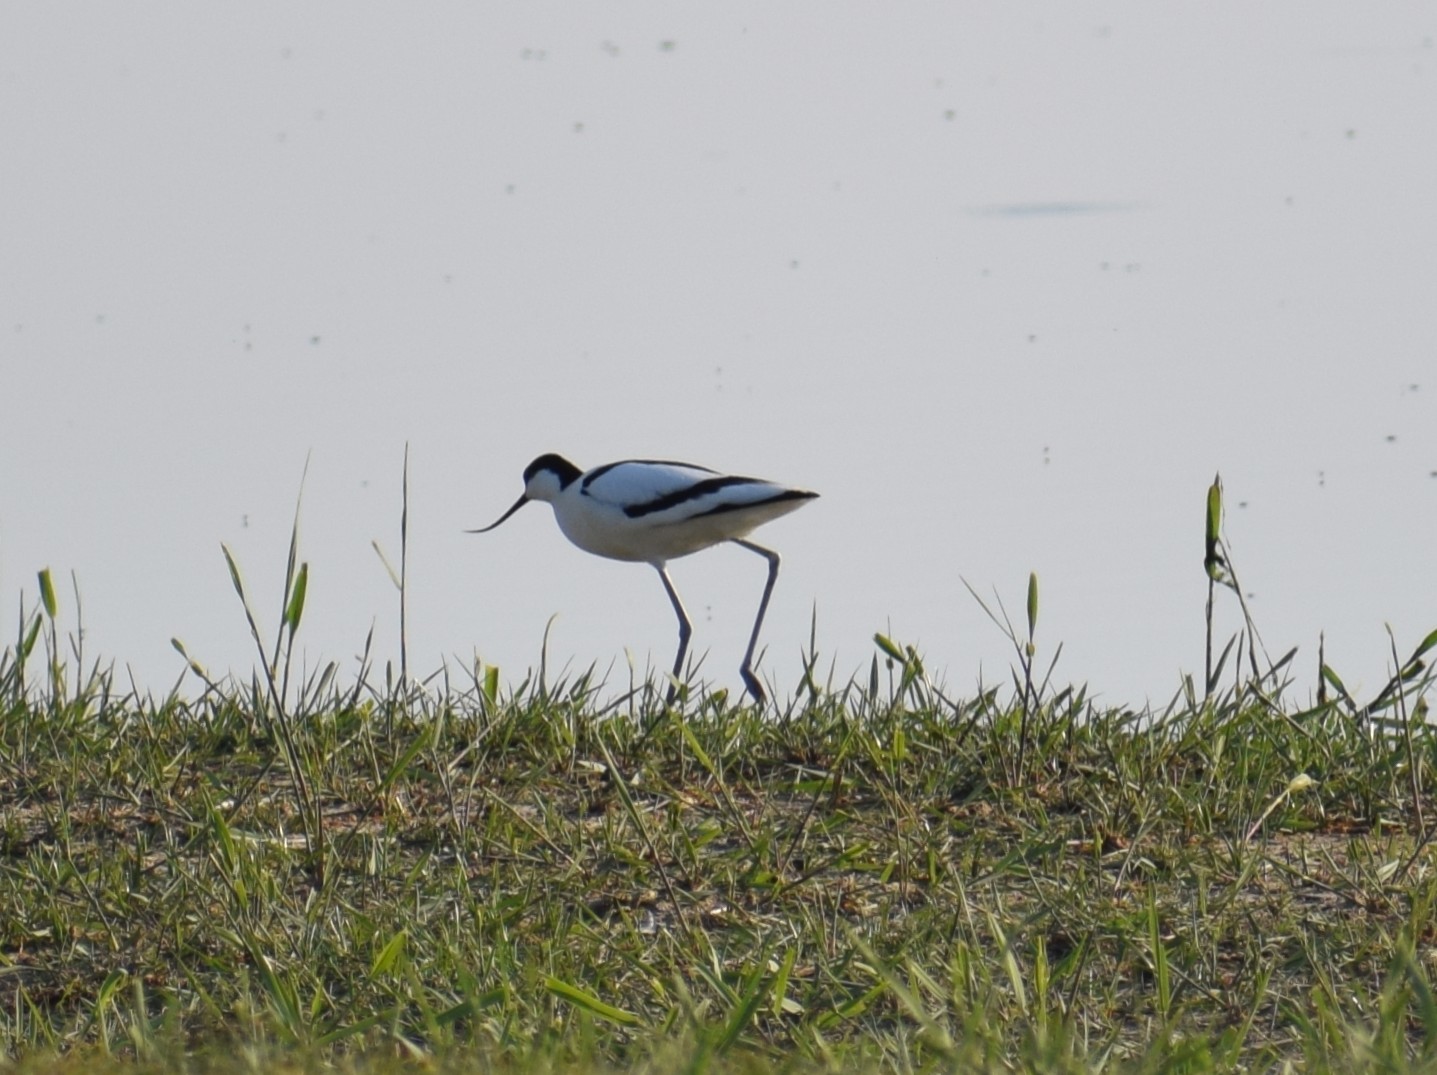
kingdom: Animalia
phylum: Chordata
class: Aves
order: Charadriiformes
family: Recurvirostridae
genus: Recurvirostra
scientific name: Recurvirostra avosetta
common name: Pied avocet
